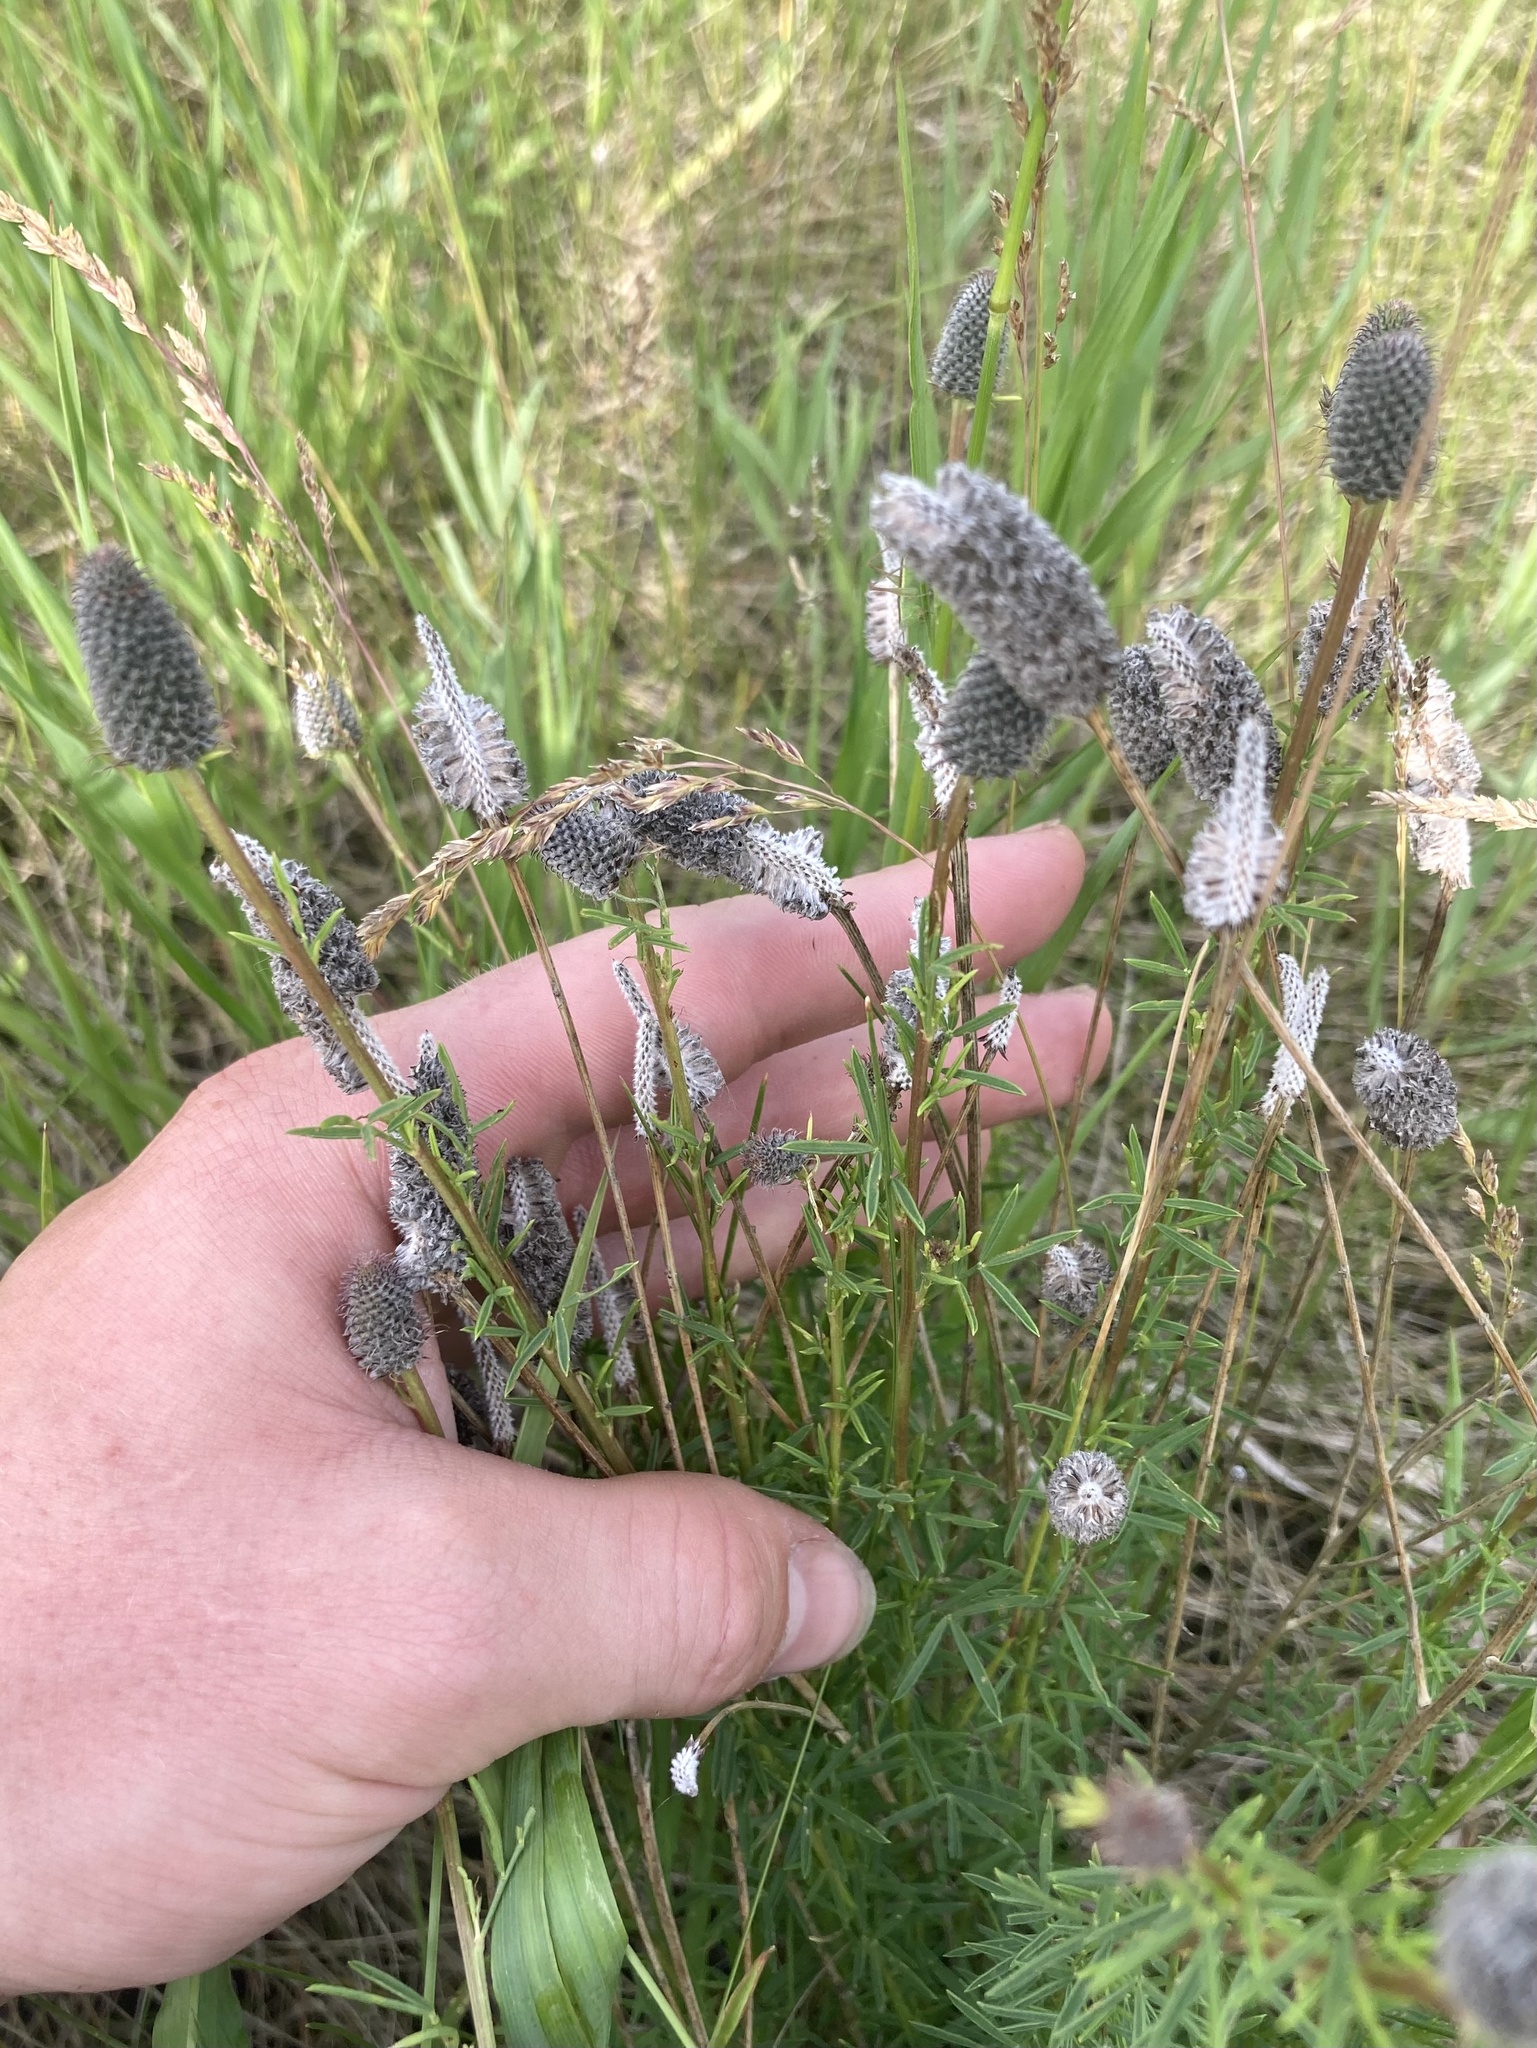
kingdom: Plantae
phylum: Tracheophyta
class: Magnoliopsida
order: Fabales
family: Fabaceae
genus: Dalea
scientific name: Dalea purpurea
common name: Purple prairie-clover
